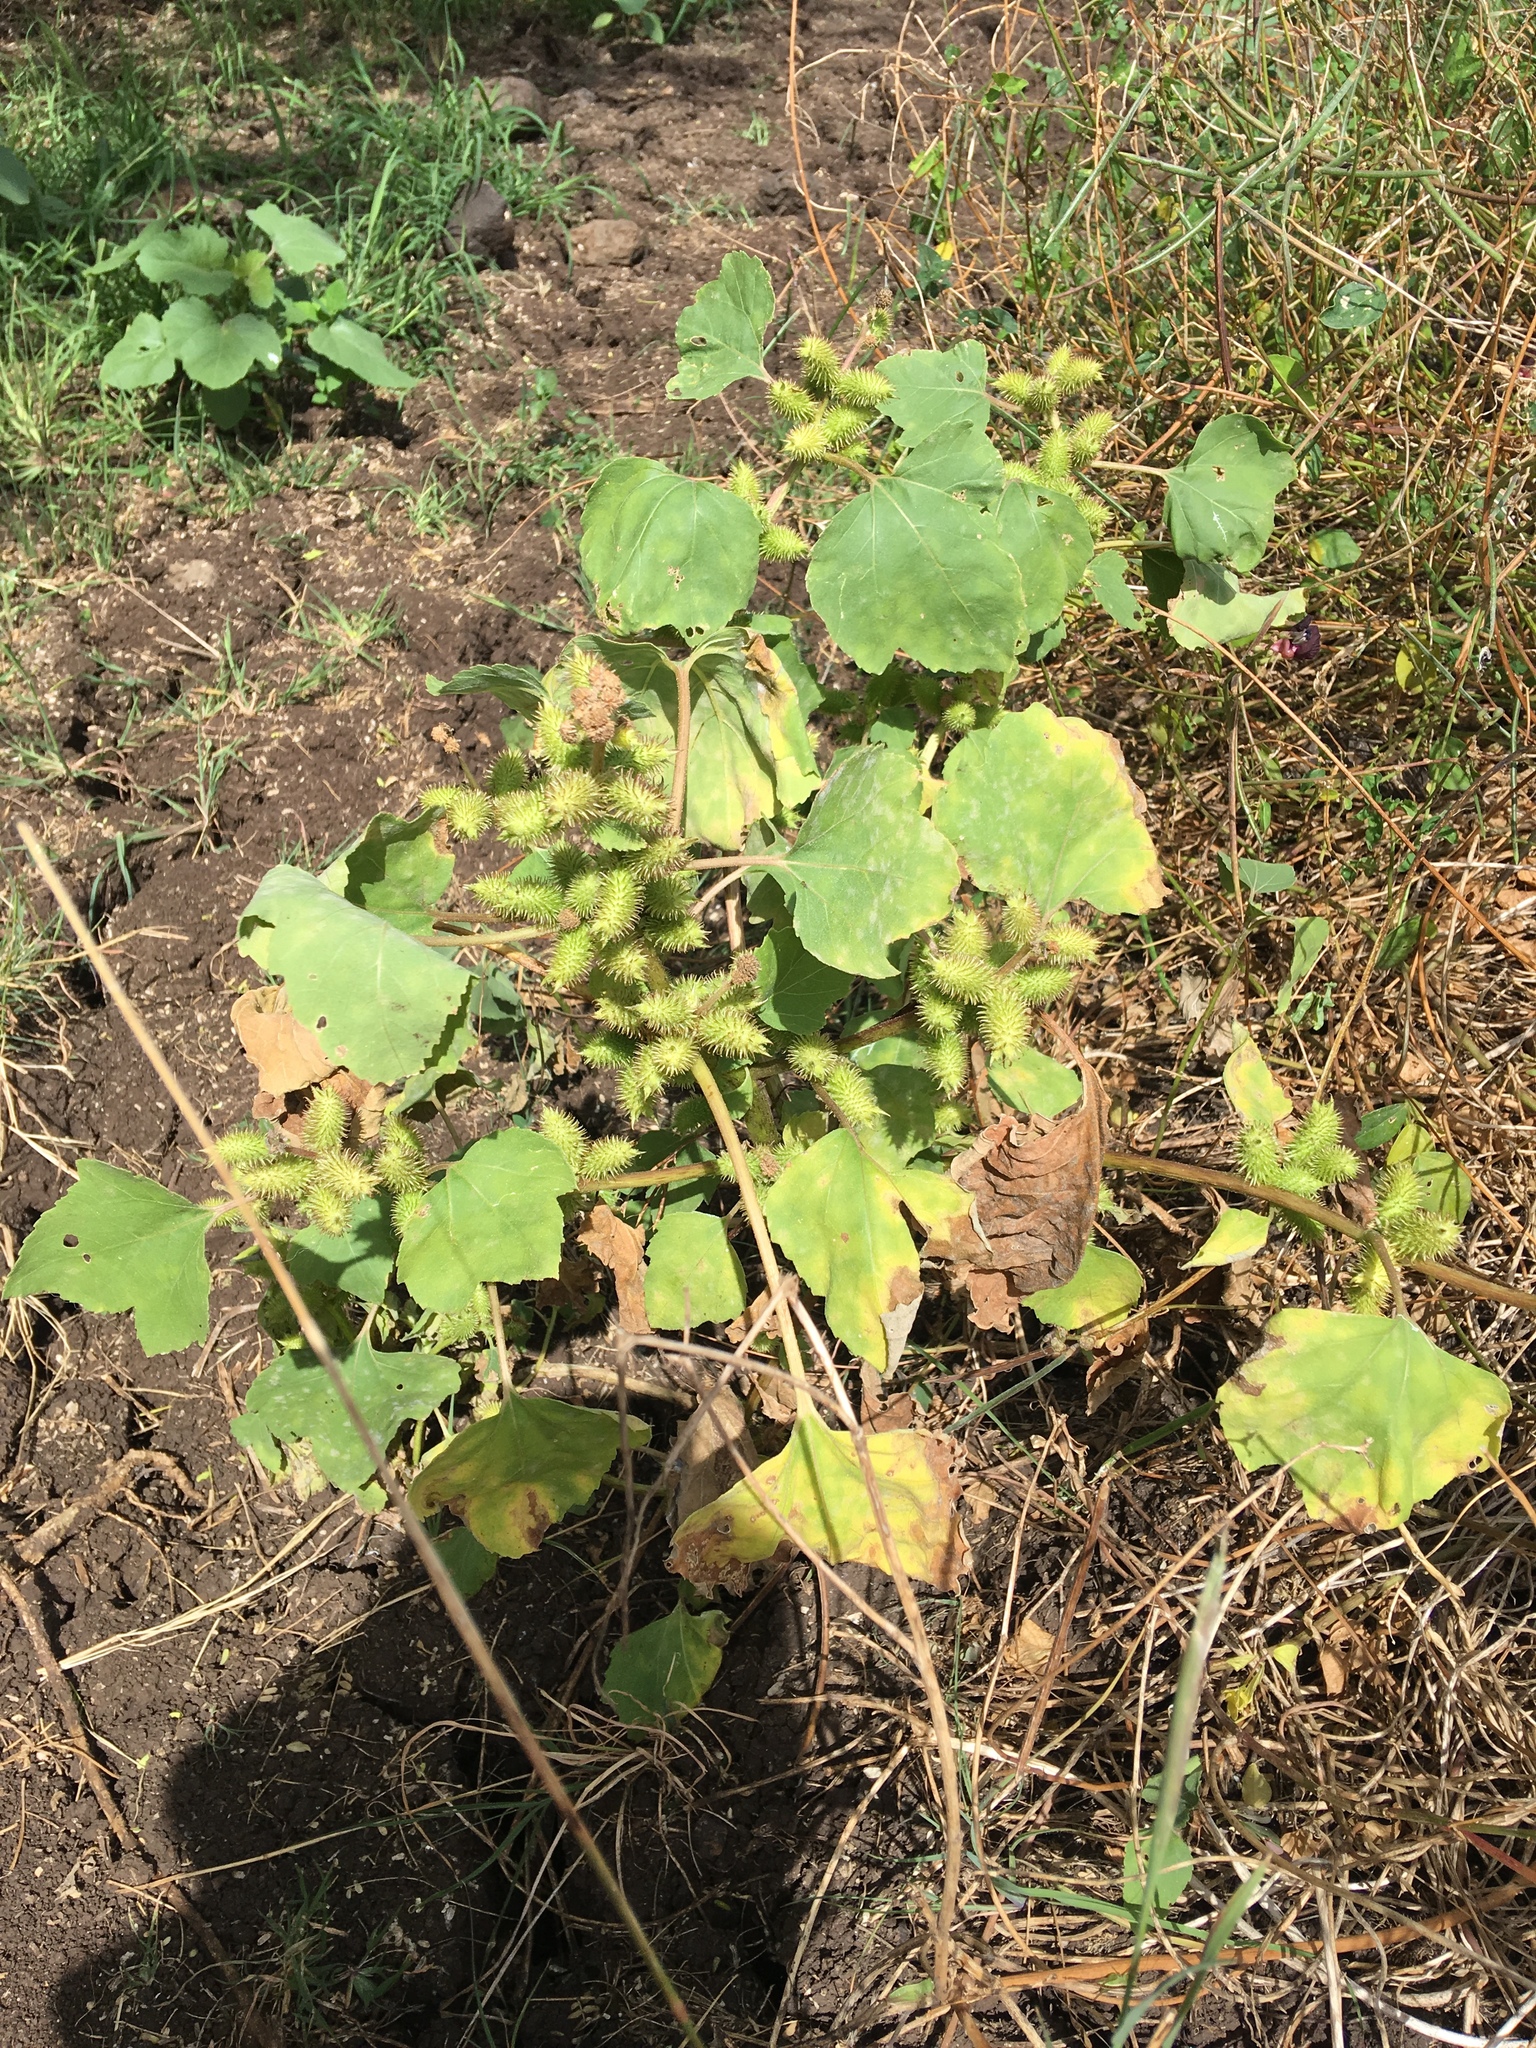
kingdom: Plantae
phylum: Tracheophyta
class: Magnoliopsida
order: Asterales
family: Asteraceae
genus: Xanthium
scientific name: Xanthium strumarium
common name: Rough cocklebur
